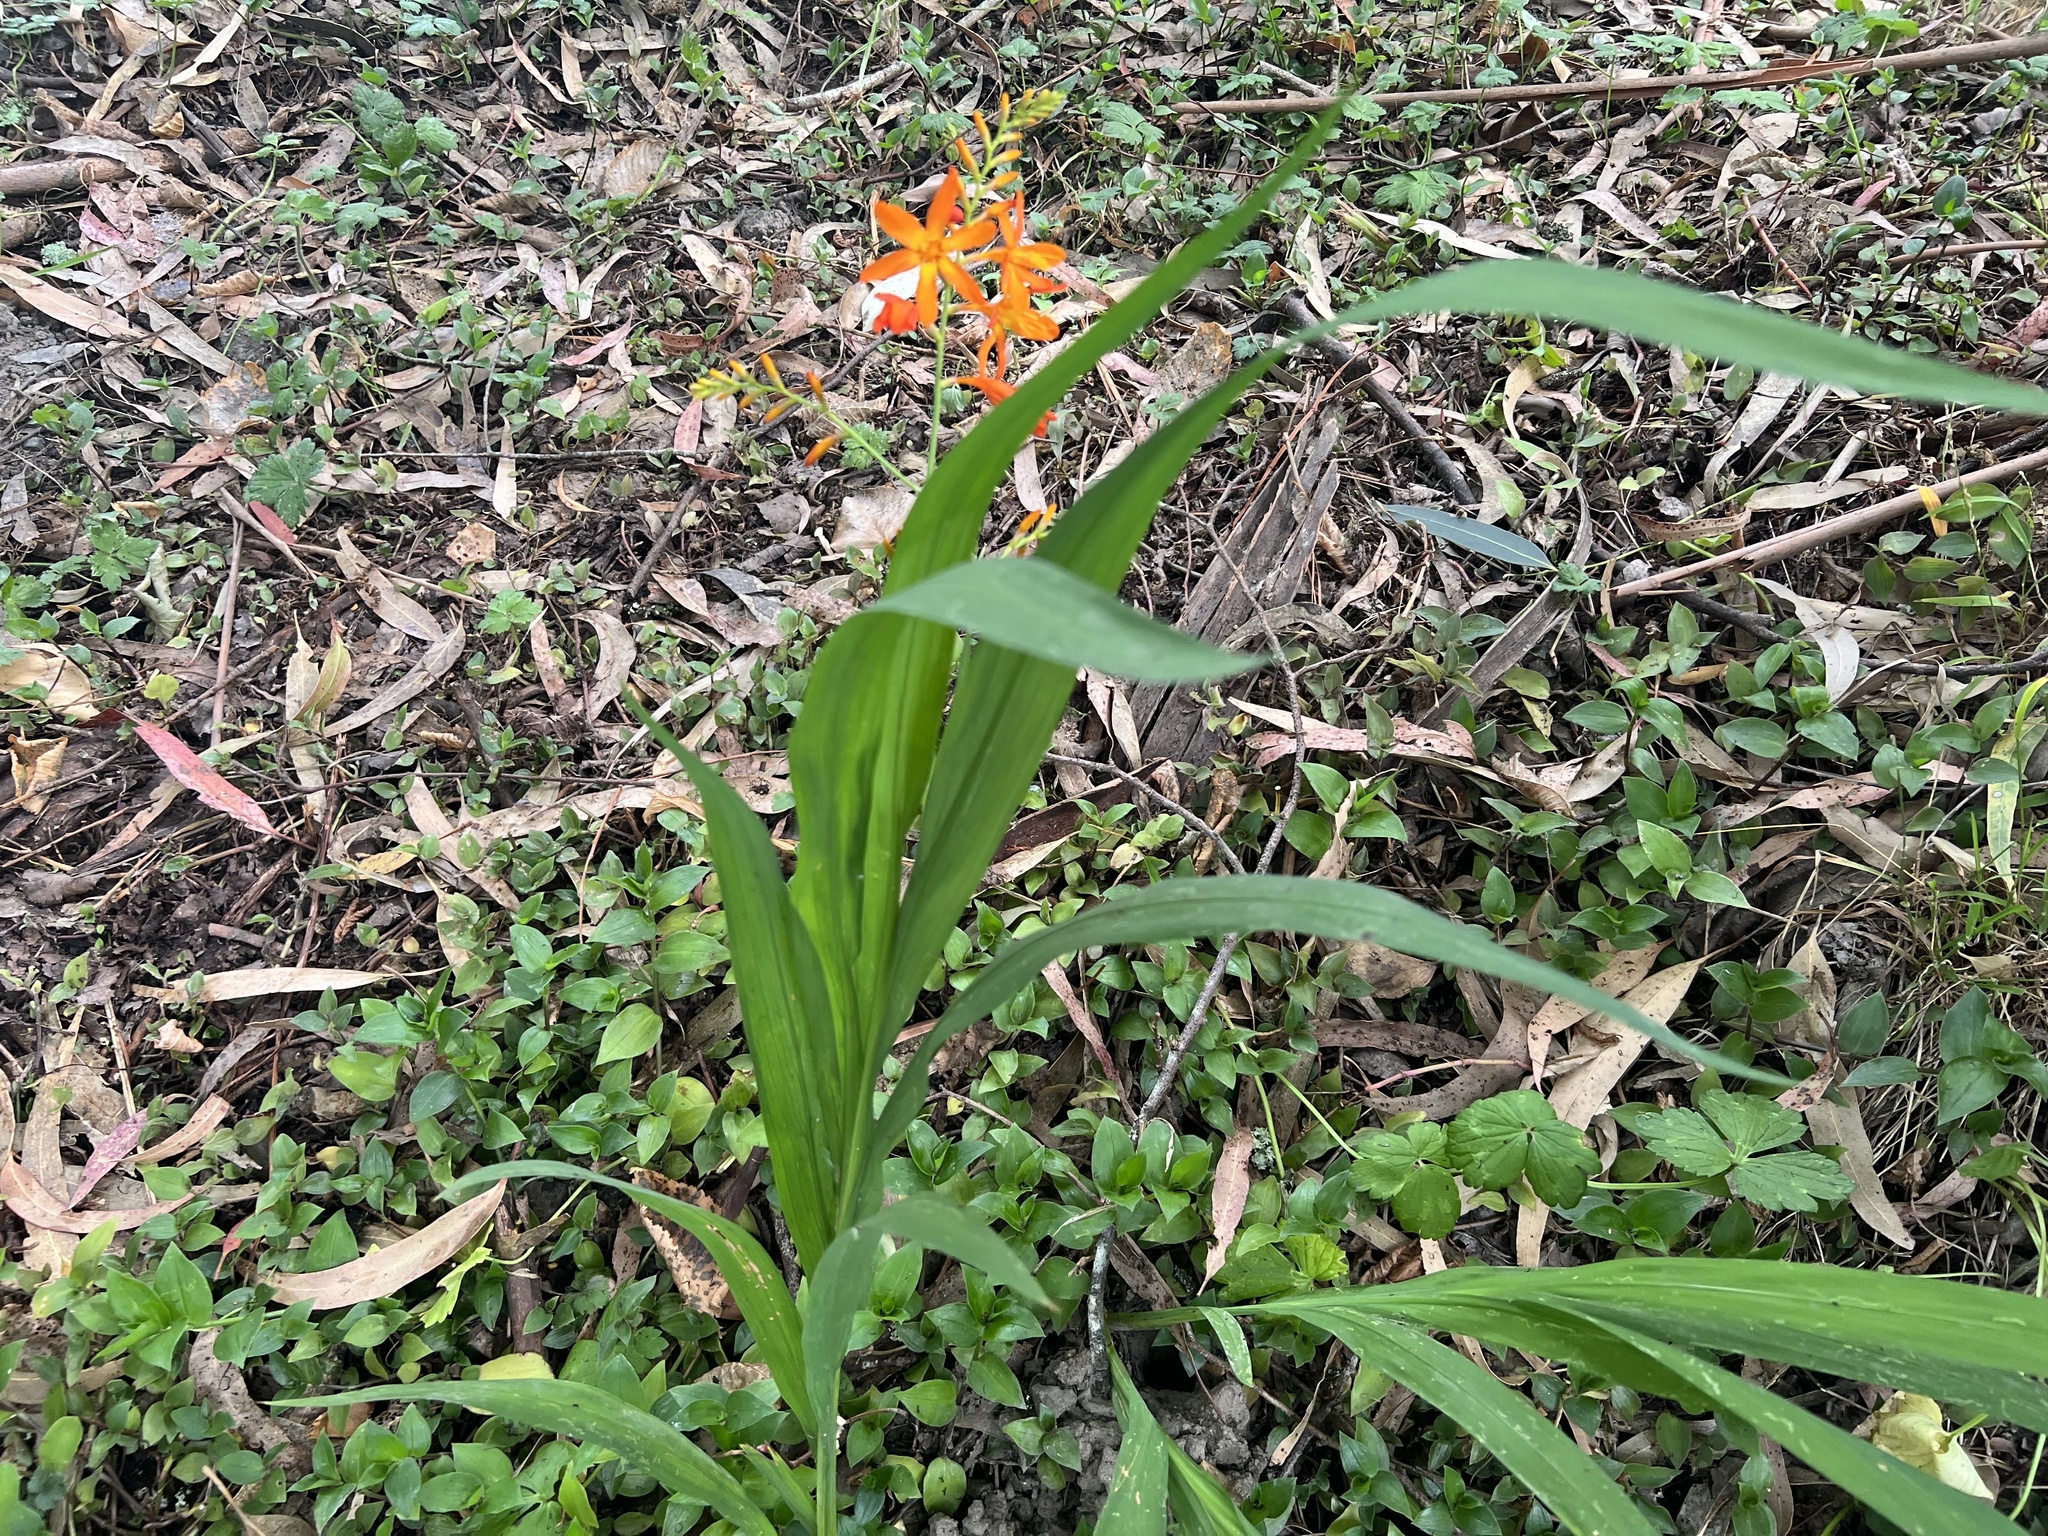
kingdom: Plantae
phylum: Tracheophyta
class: Liliopsida
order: Asparagales
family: Iridaceae
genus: Crocosmia
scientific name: Crocosmia crocosmiiflora
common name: Montbretia
